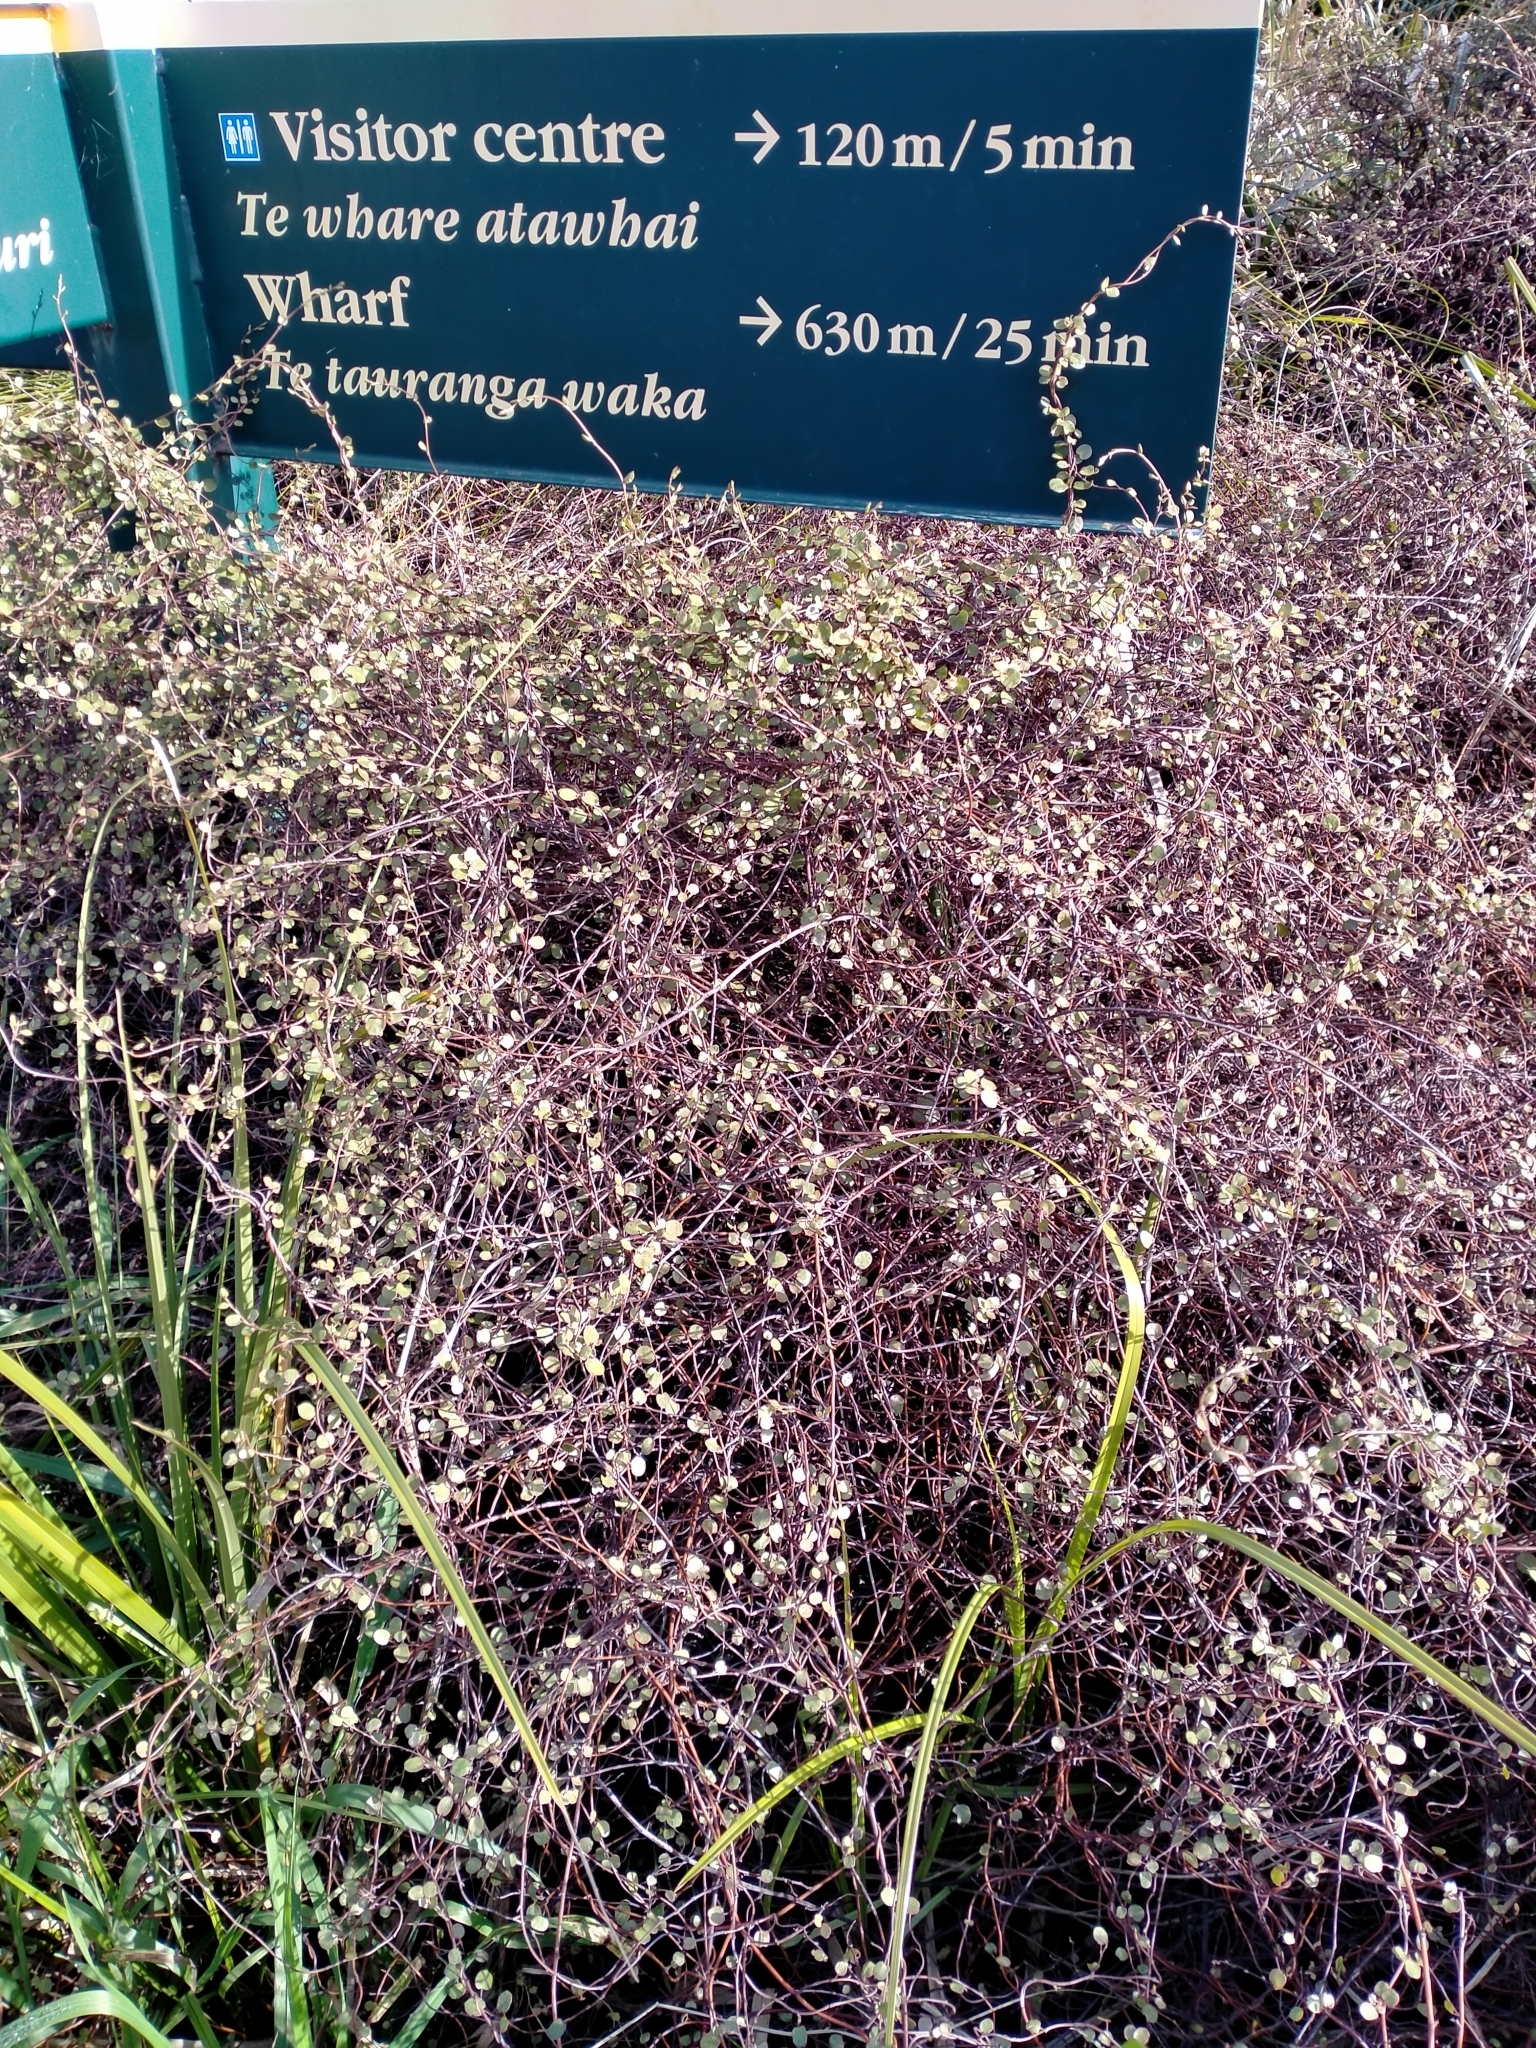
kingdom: Plantae
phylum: Tracheophyta
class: Magnoliopsida
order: Caryophyllales
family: Polygonaceae
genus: Muehlenbeckia
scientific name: Muehlenbeckia complexa
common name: Wireplant
